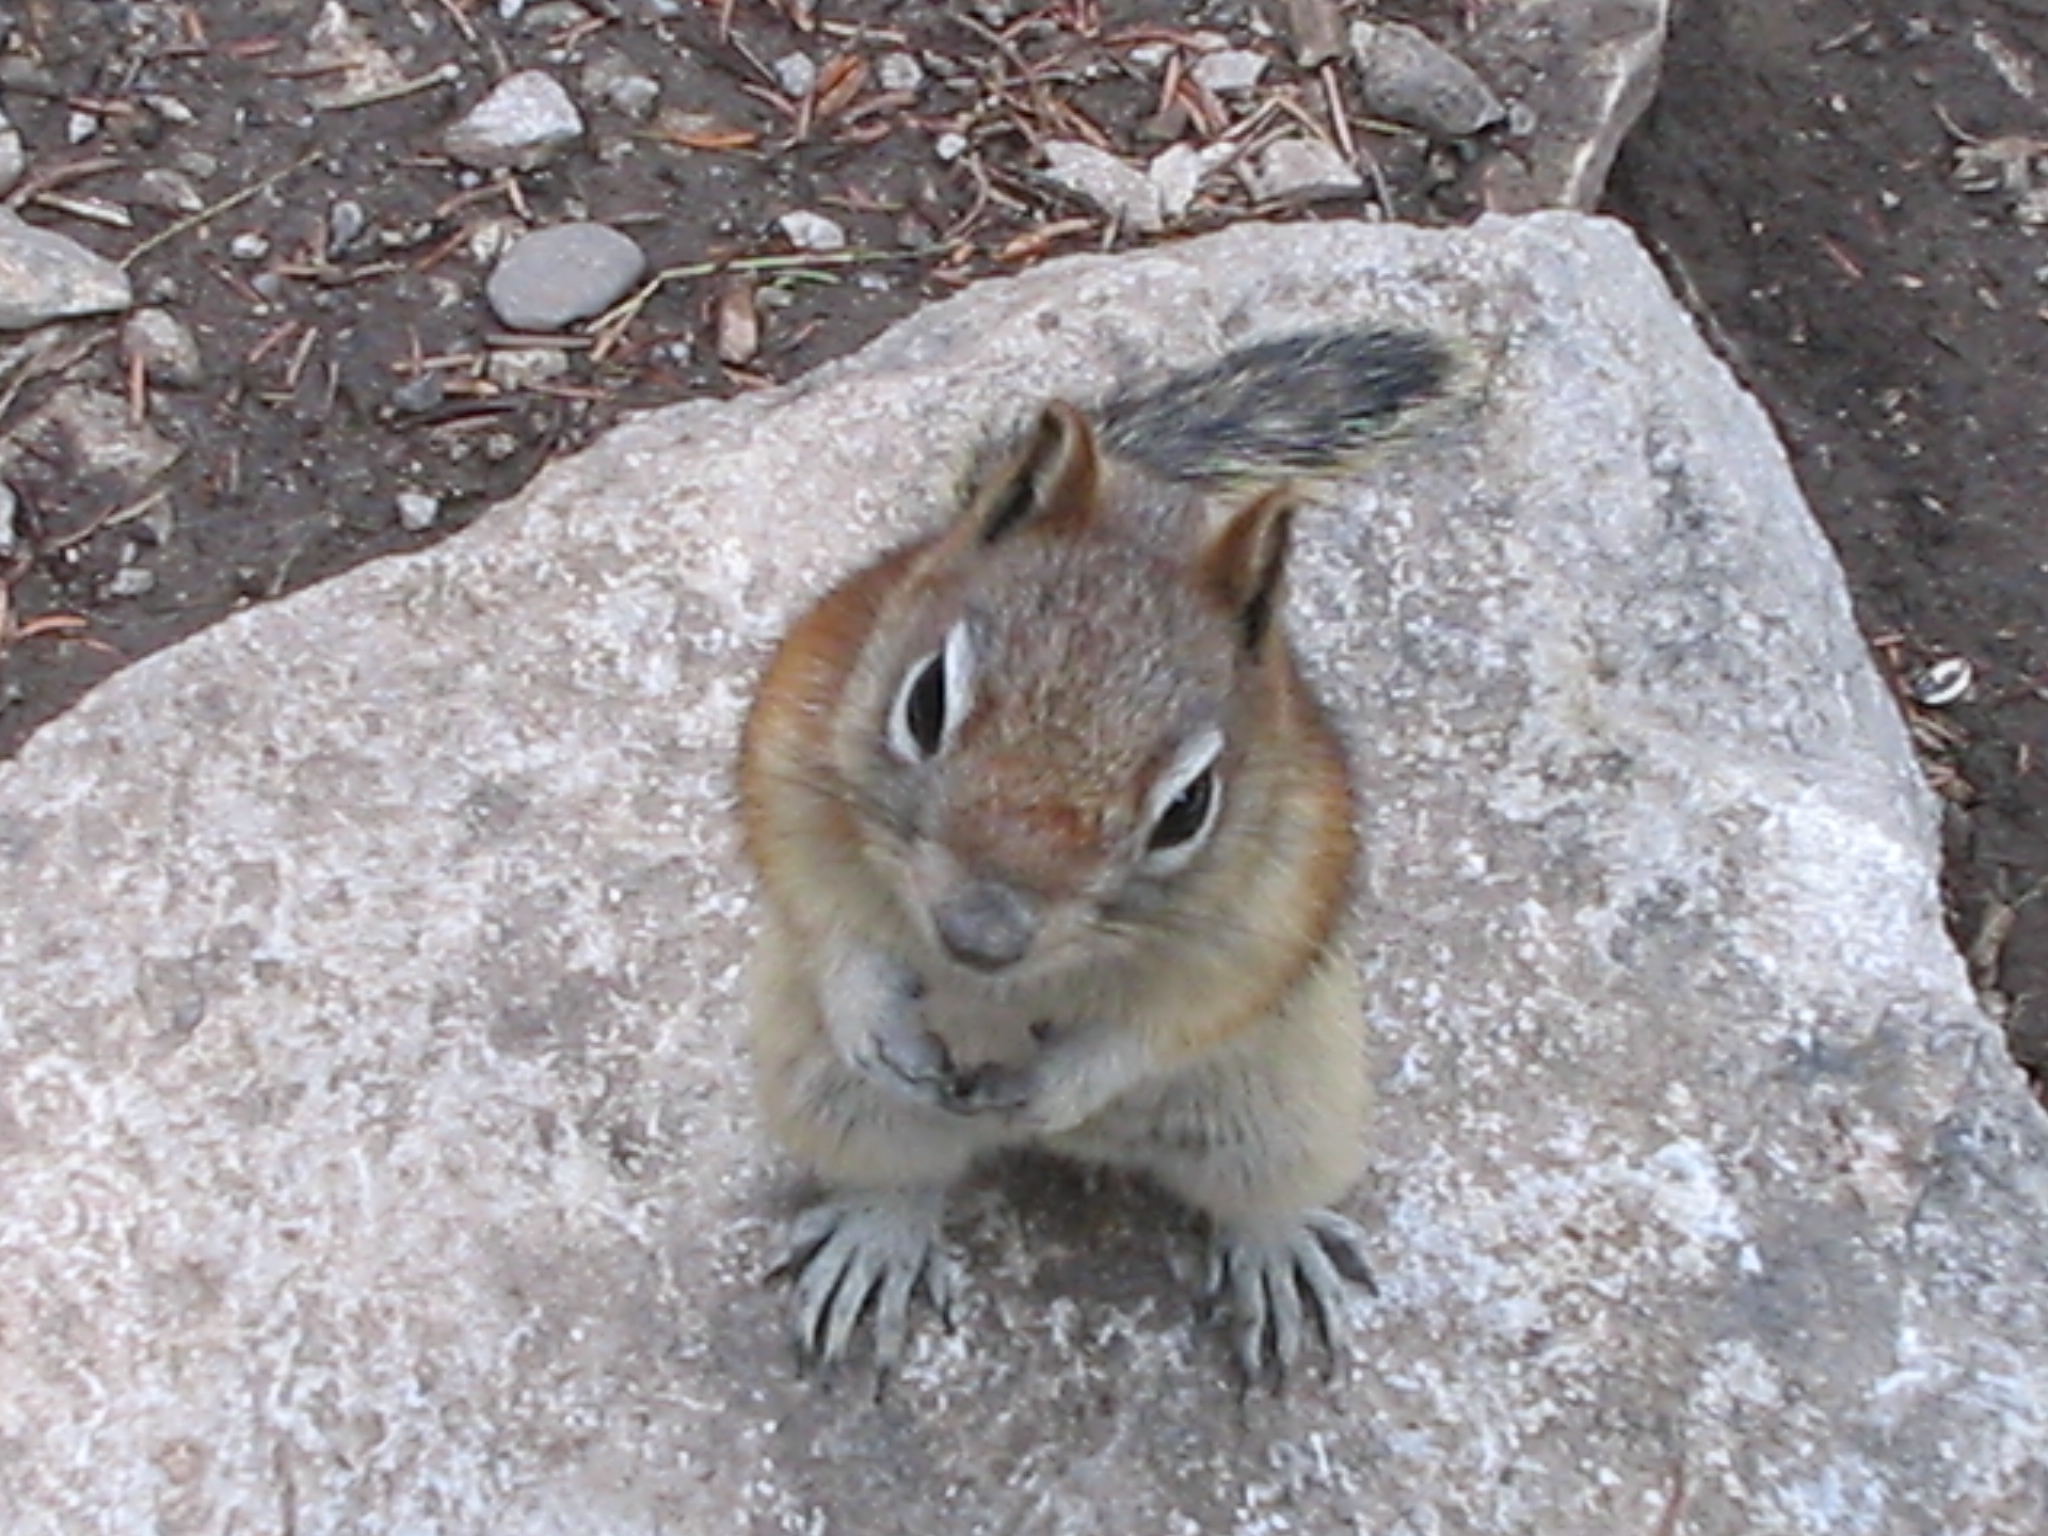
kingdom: Animalia
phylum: Chordata
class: Mammalia
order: Rodentia
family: Sciuridae
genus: Callospermophilus
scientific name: Callospermophilus lateralis
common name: Golden-mantled ground squirrel
